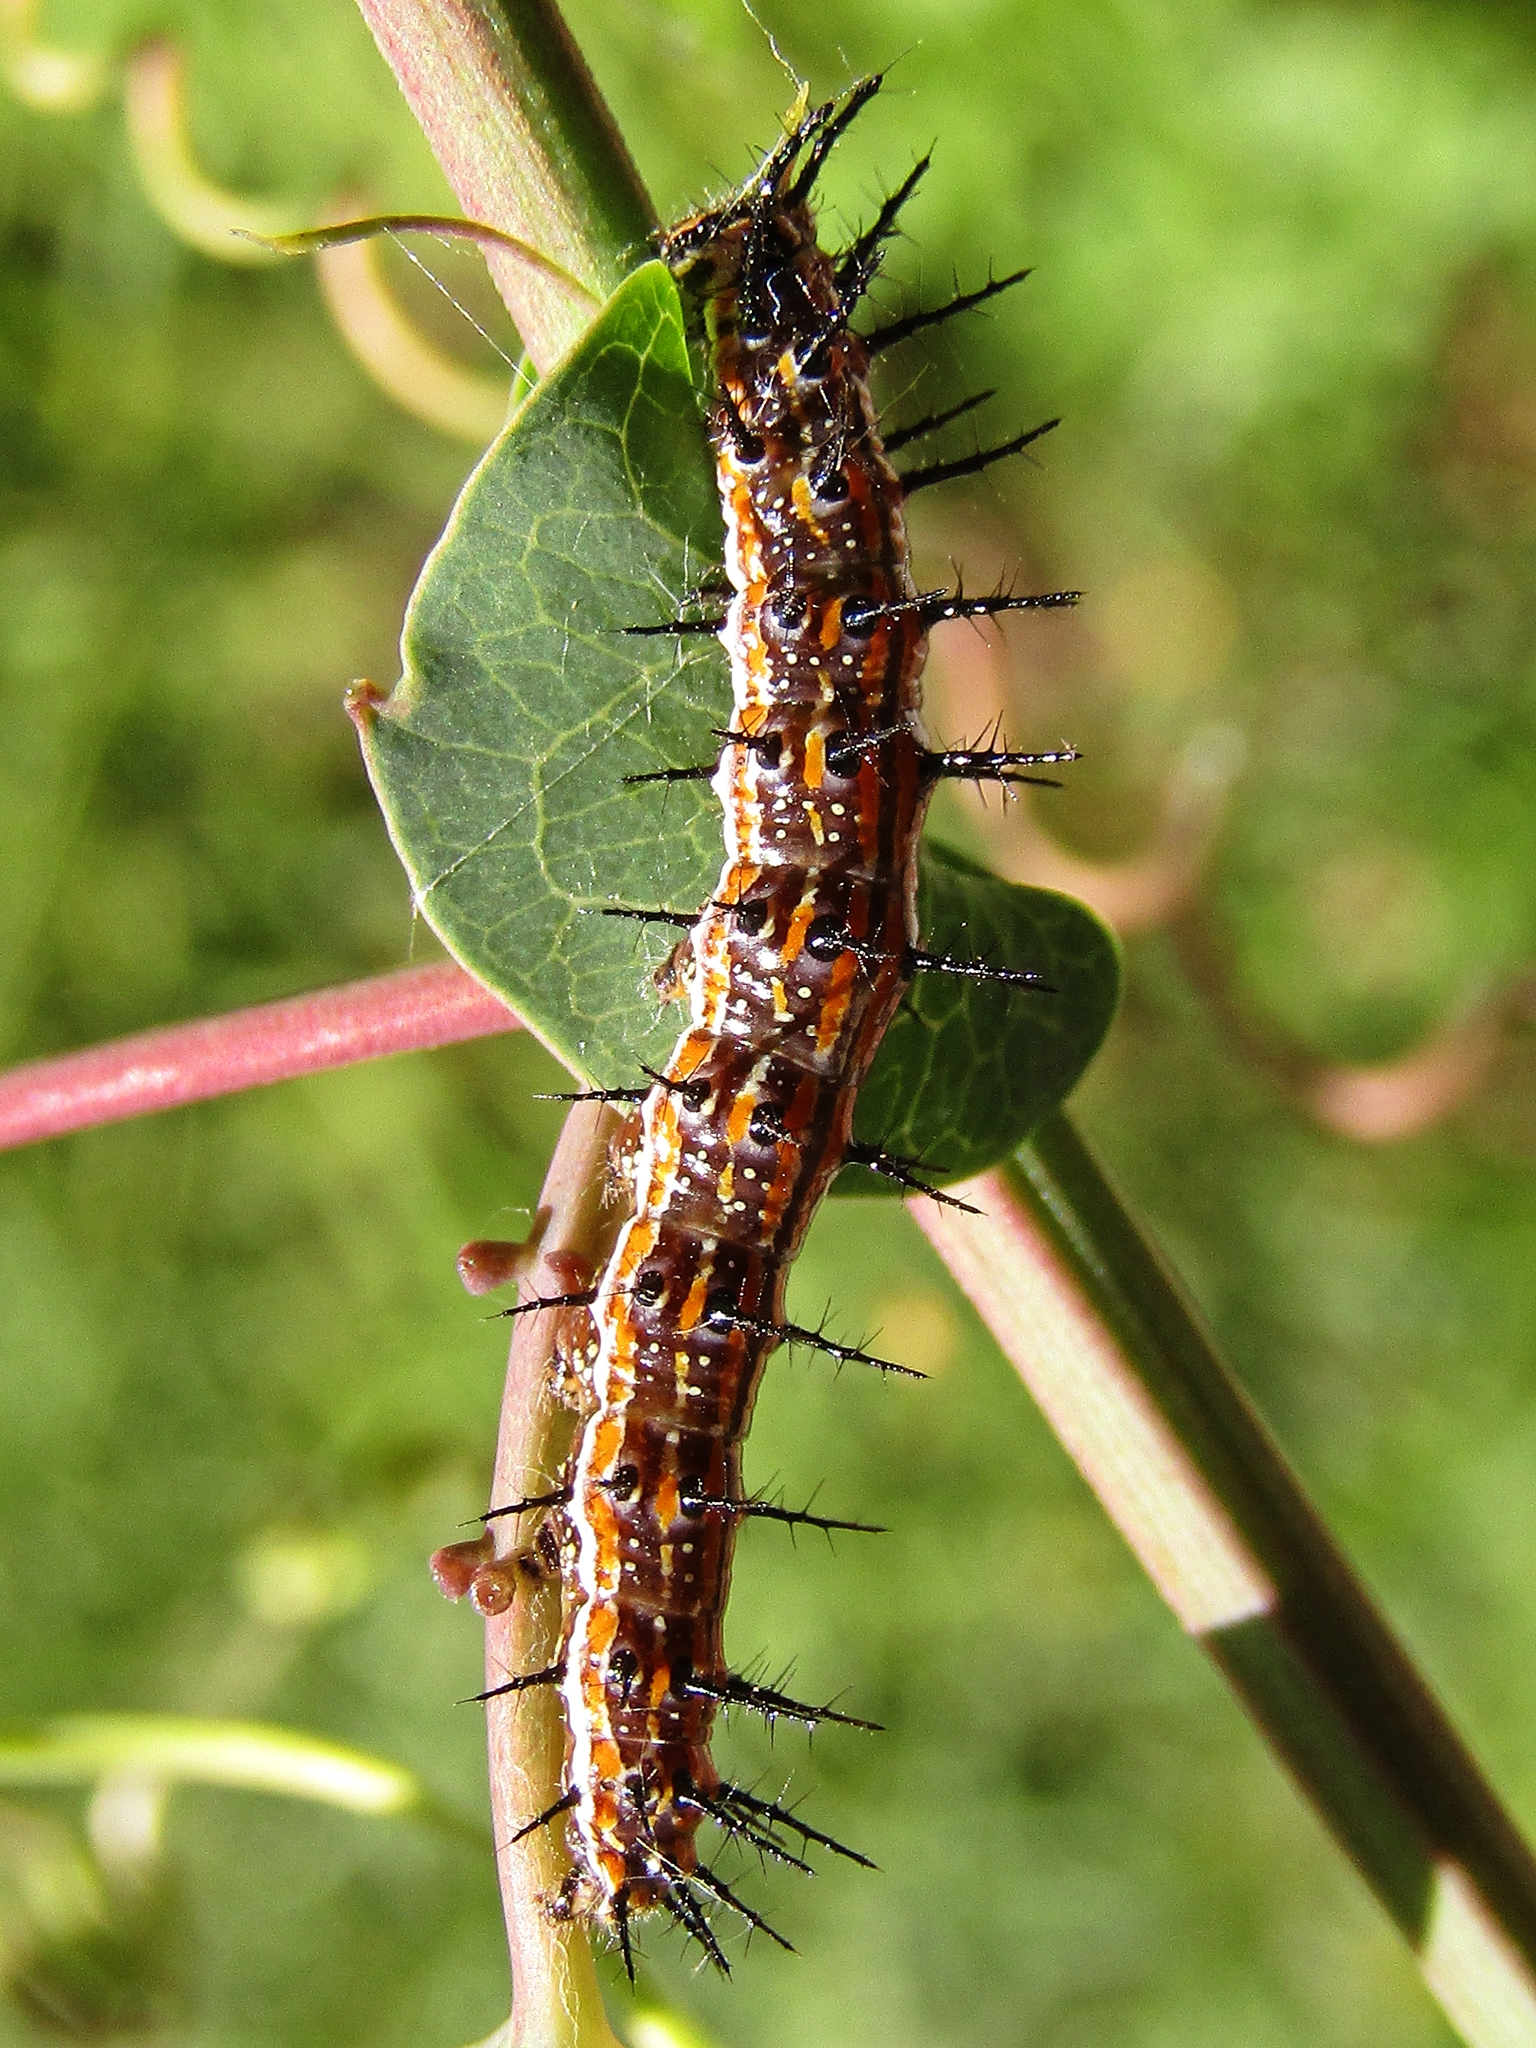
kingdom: Animalia
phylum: Arthropoda
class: Insecta
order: Lepidoptera
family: Nymphalidae
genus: Dione
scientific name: Dione vanillae
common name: Gulf fritillary
